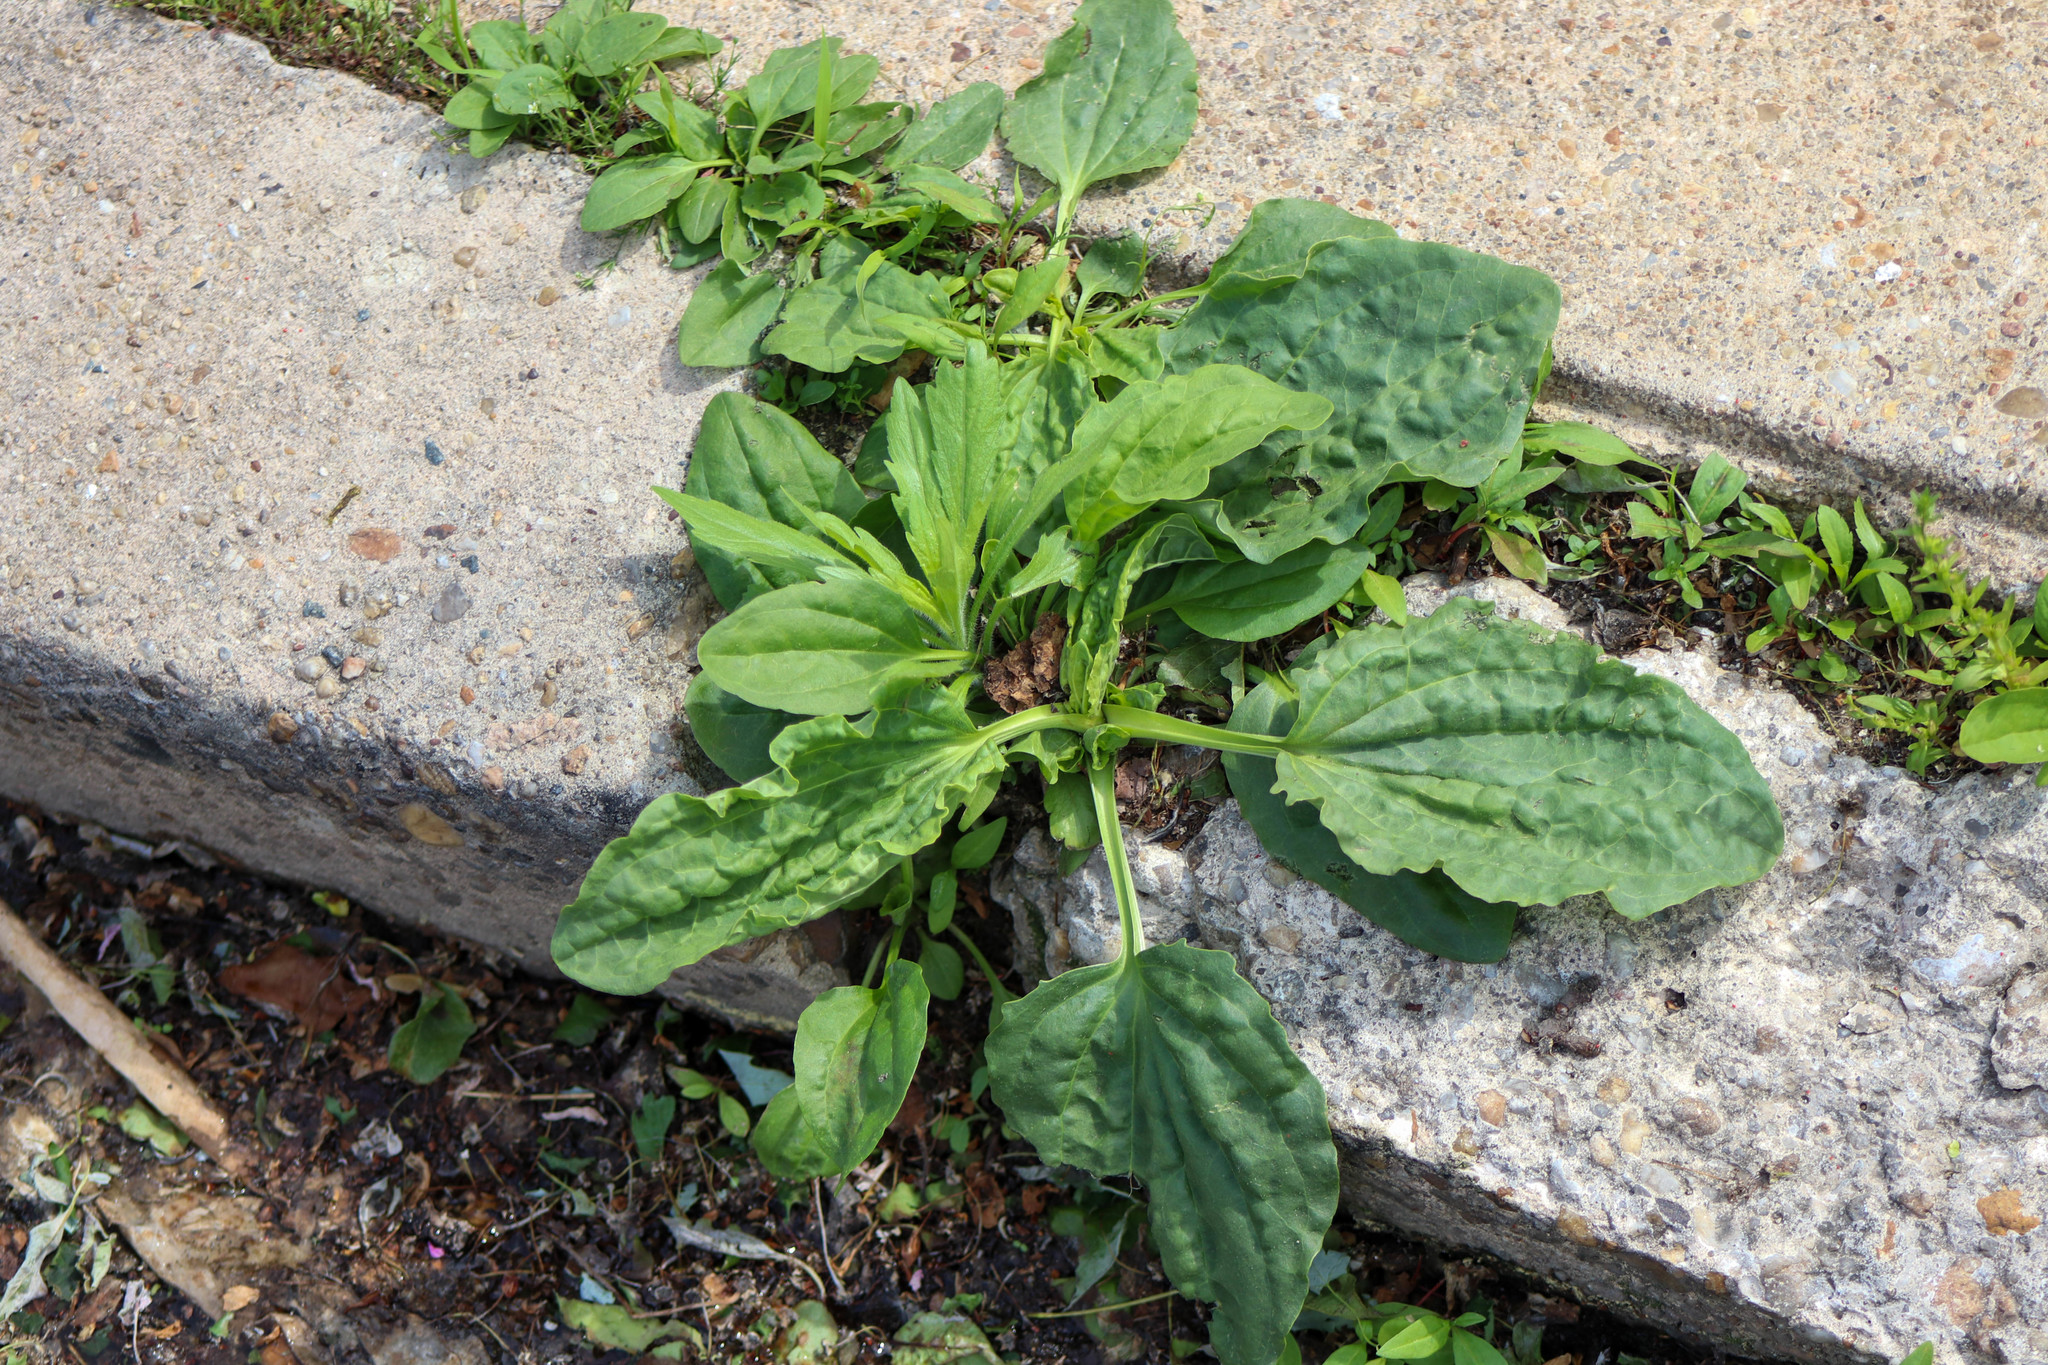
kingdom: Plantae
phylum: Tracheophyta
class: Magnoliopsida
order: Lamiales
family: Plantaginaceae
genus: Plantago
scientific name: Plantago major
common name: Common plantain
